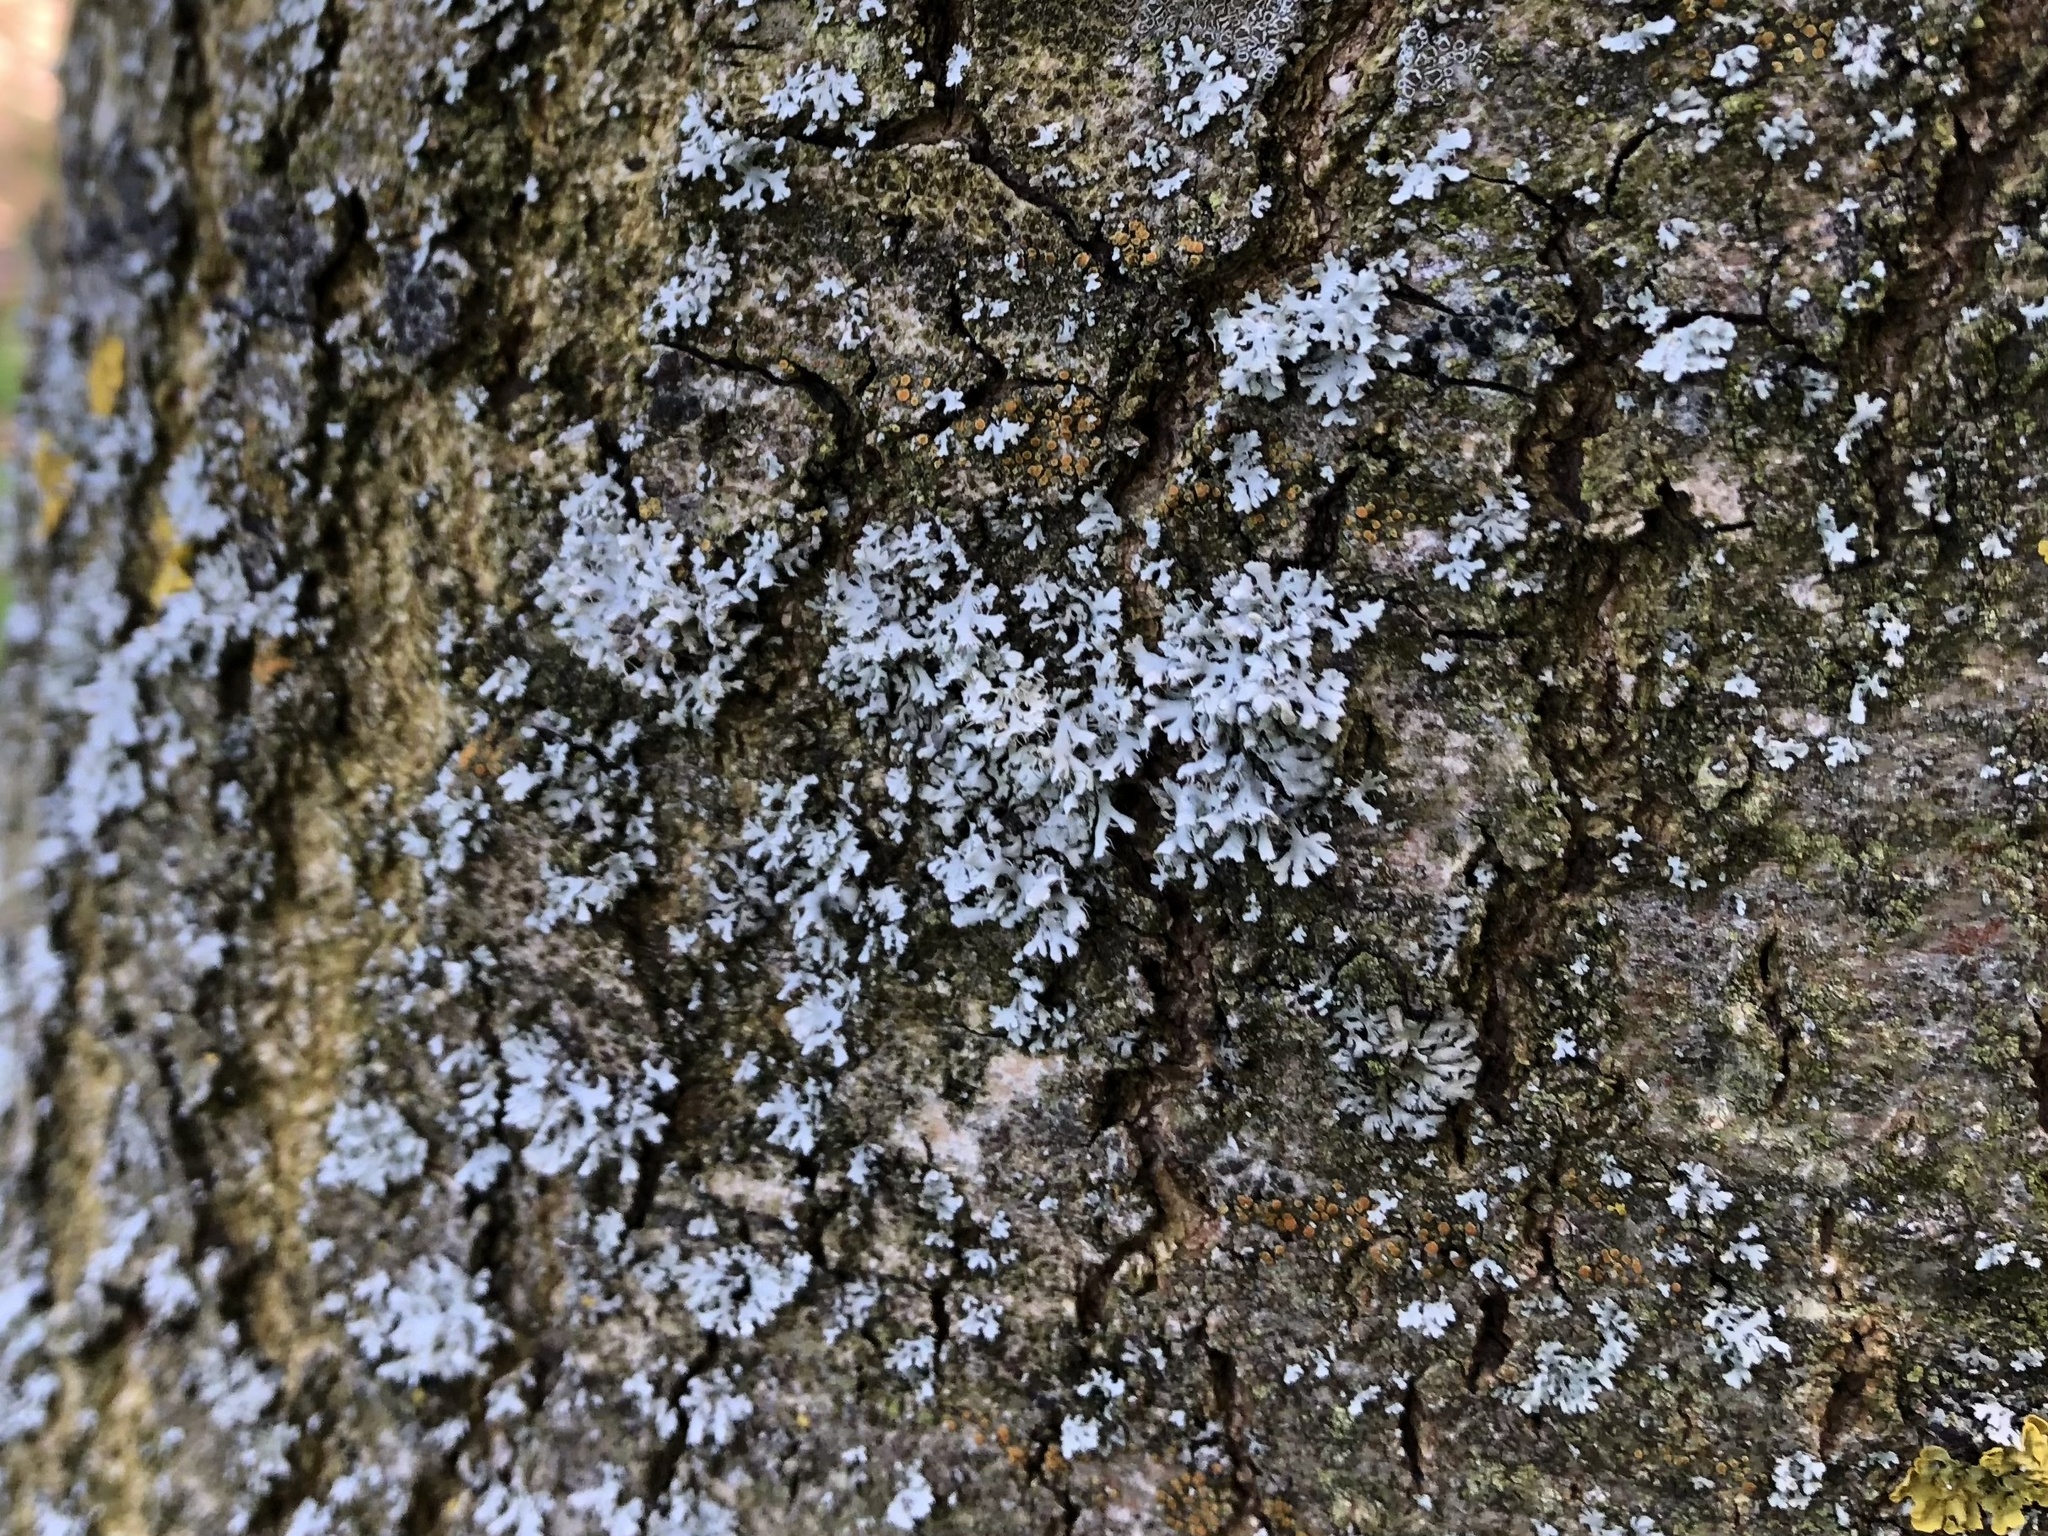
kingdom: Fungi
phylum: Ascomycota
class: Lecanoromycetes
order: Caliciales
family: Physciaceae
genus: Physcia
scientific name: Physcia adscendens
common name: Hooded rosette lichen
